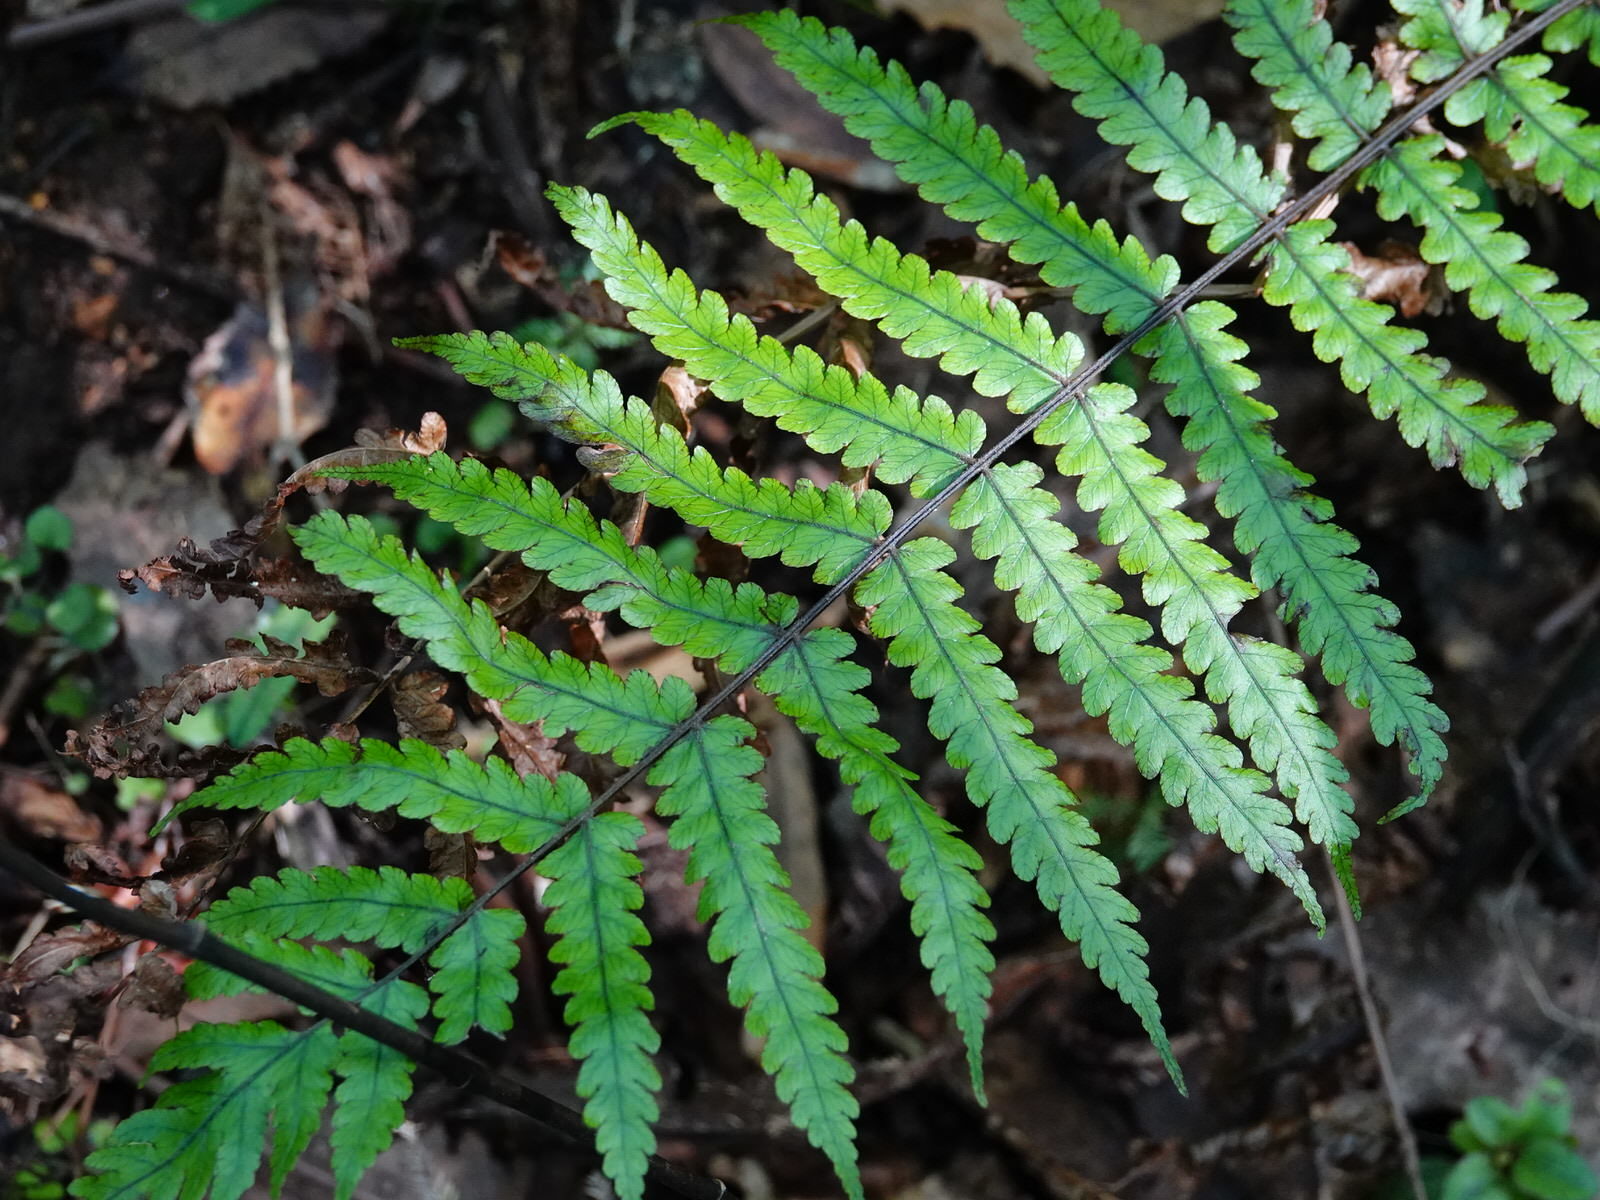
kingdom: Plantae
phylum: Tracheophyta
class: Polypodiopsida
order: Polypodiales
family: Thelypteridaceae
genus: Pakau
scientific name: Pakau pennigera
